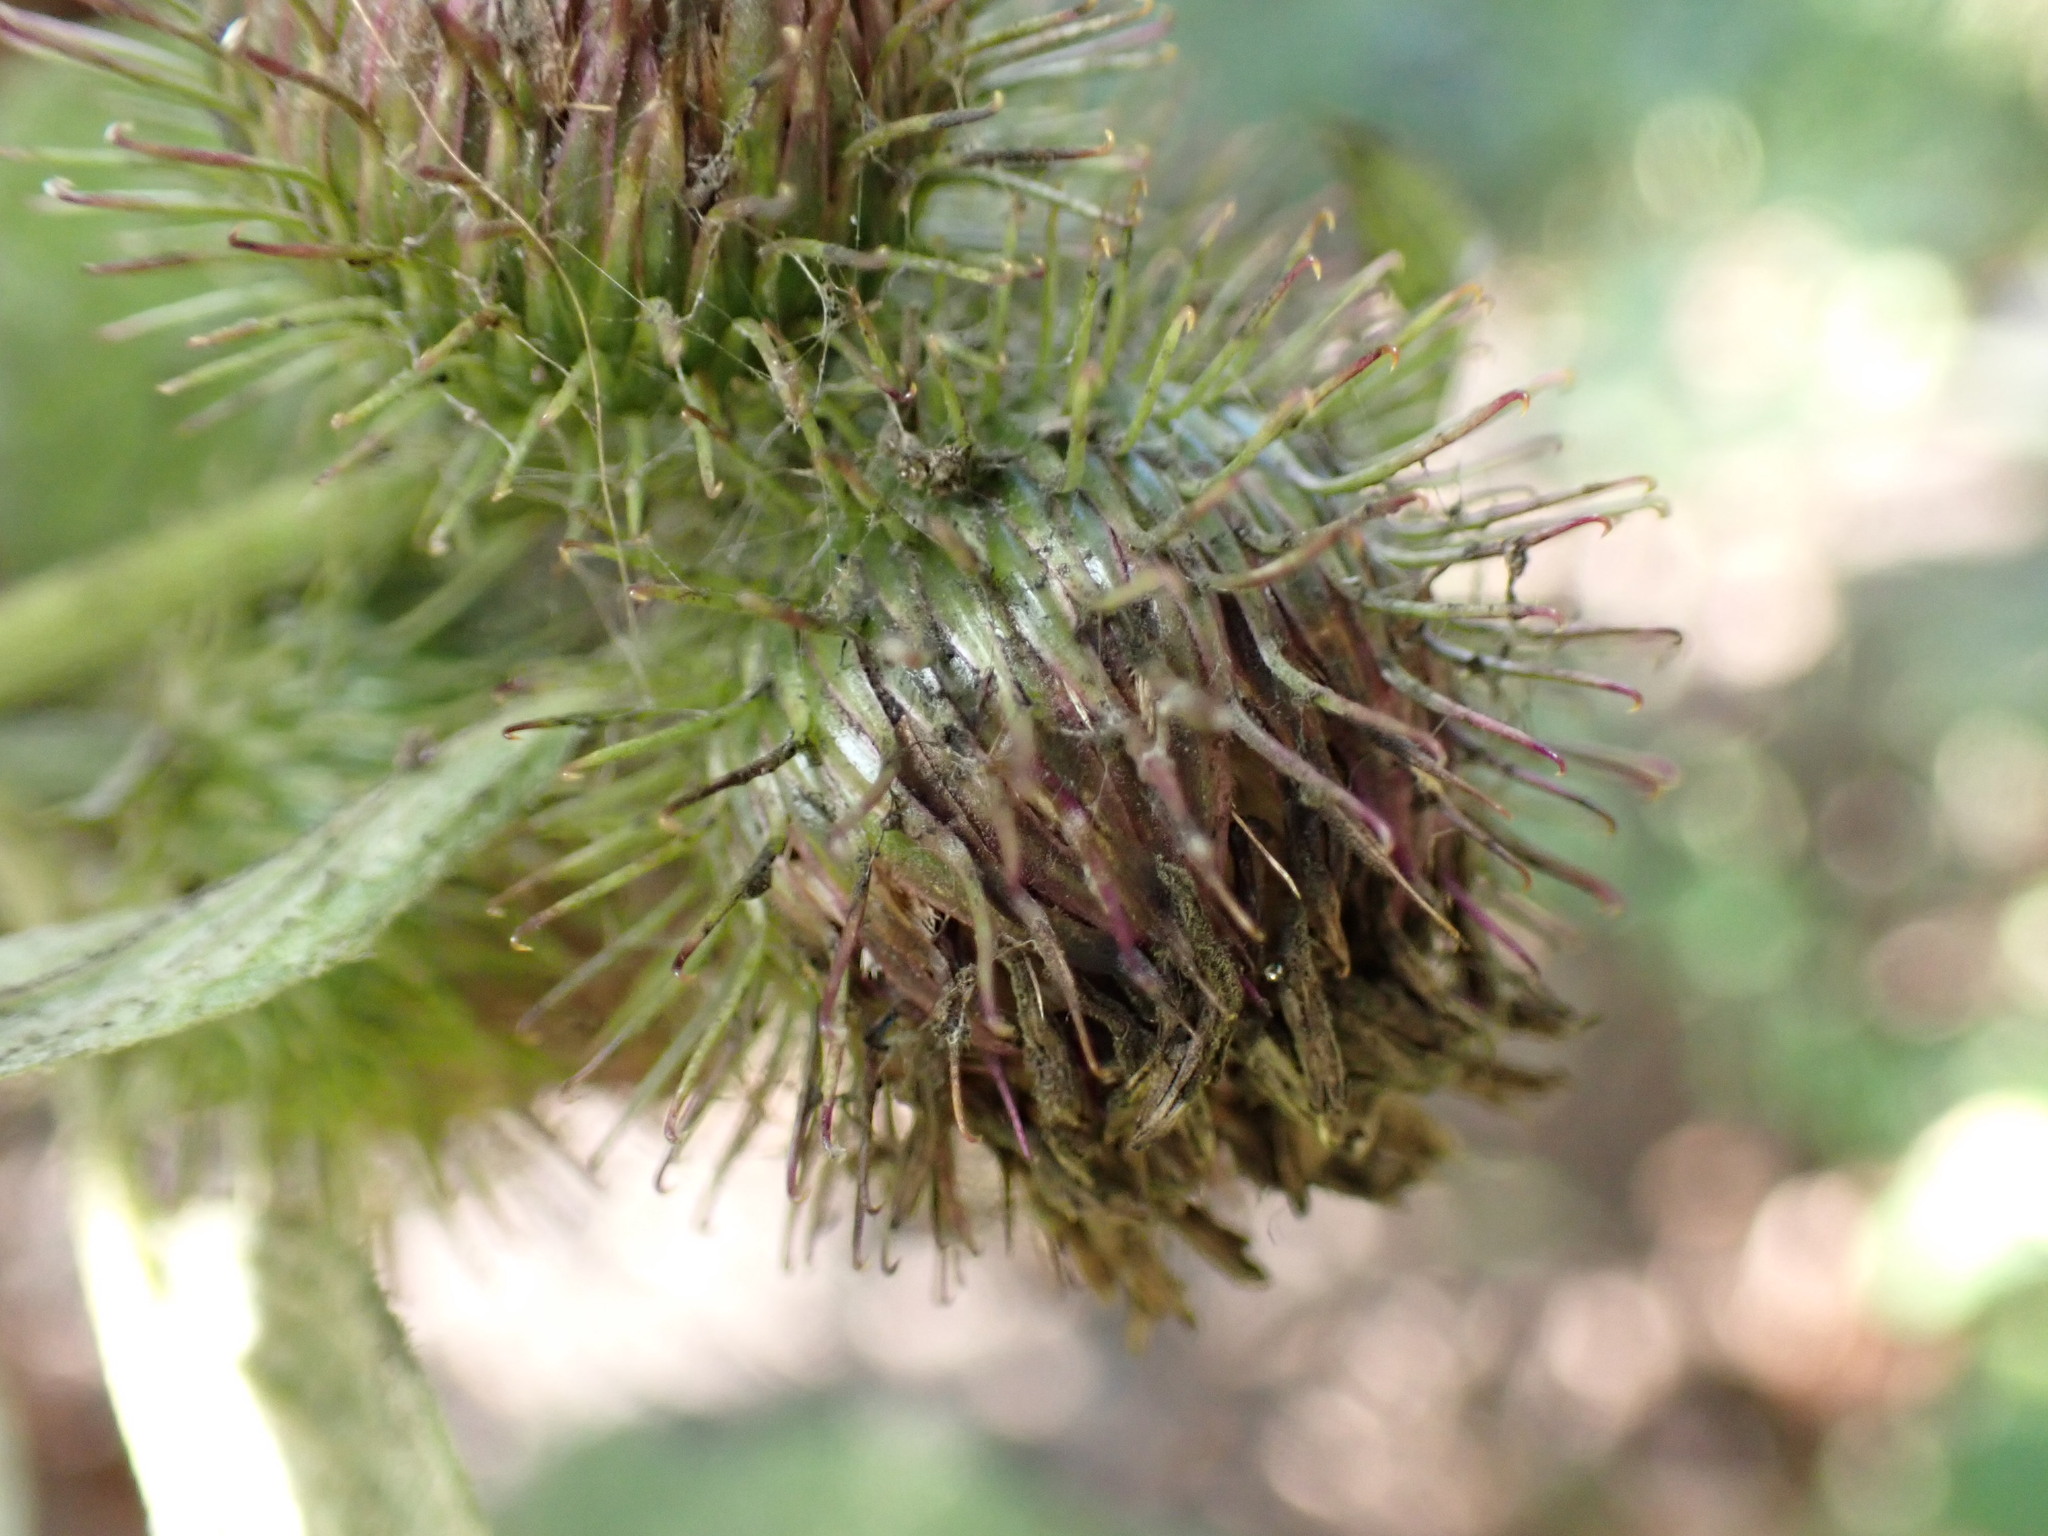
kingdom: Plantae
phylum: Tracheophyta
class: Magnoliopsida
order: Asterales
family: Asteraceae
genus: Arctium
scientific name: Arctium minus
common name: Lesser burdock
